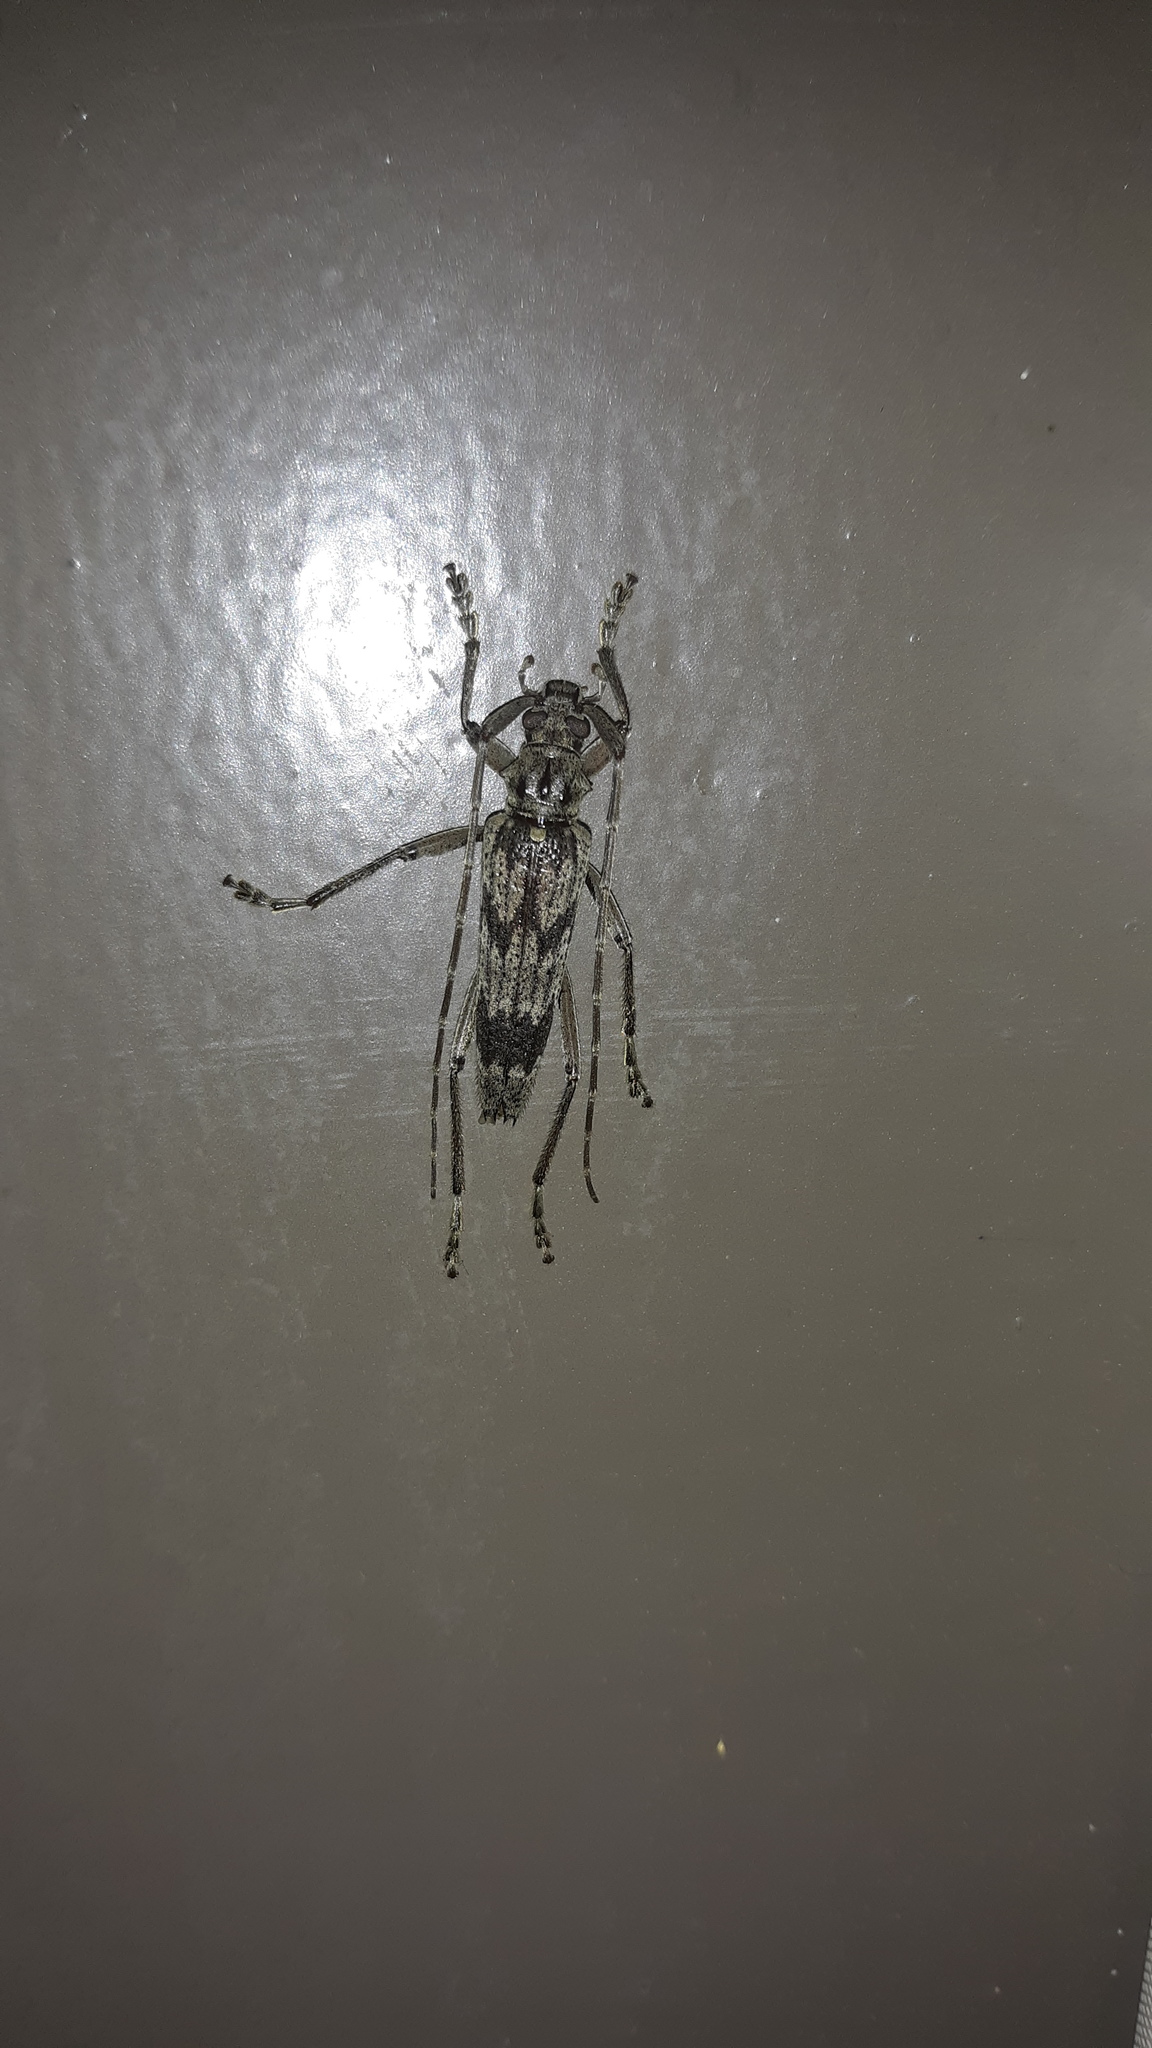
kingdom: Animalia
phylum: Arthropoda
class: Insecta
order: Coleoptera
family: Cerambycidae
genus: Elytrimitatrix
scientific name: Elytrimitatrix undata
